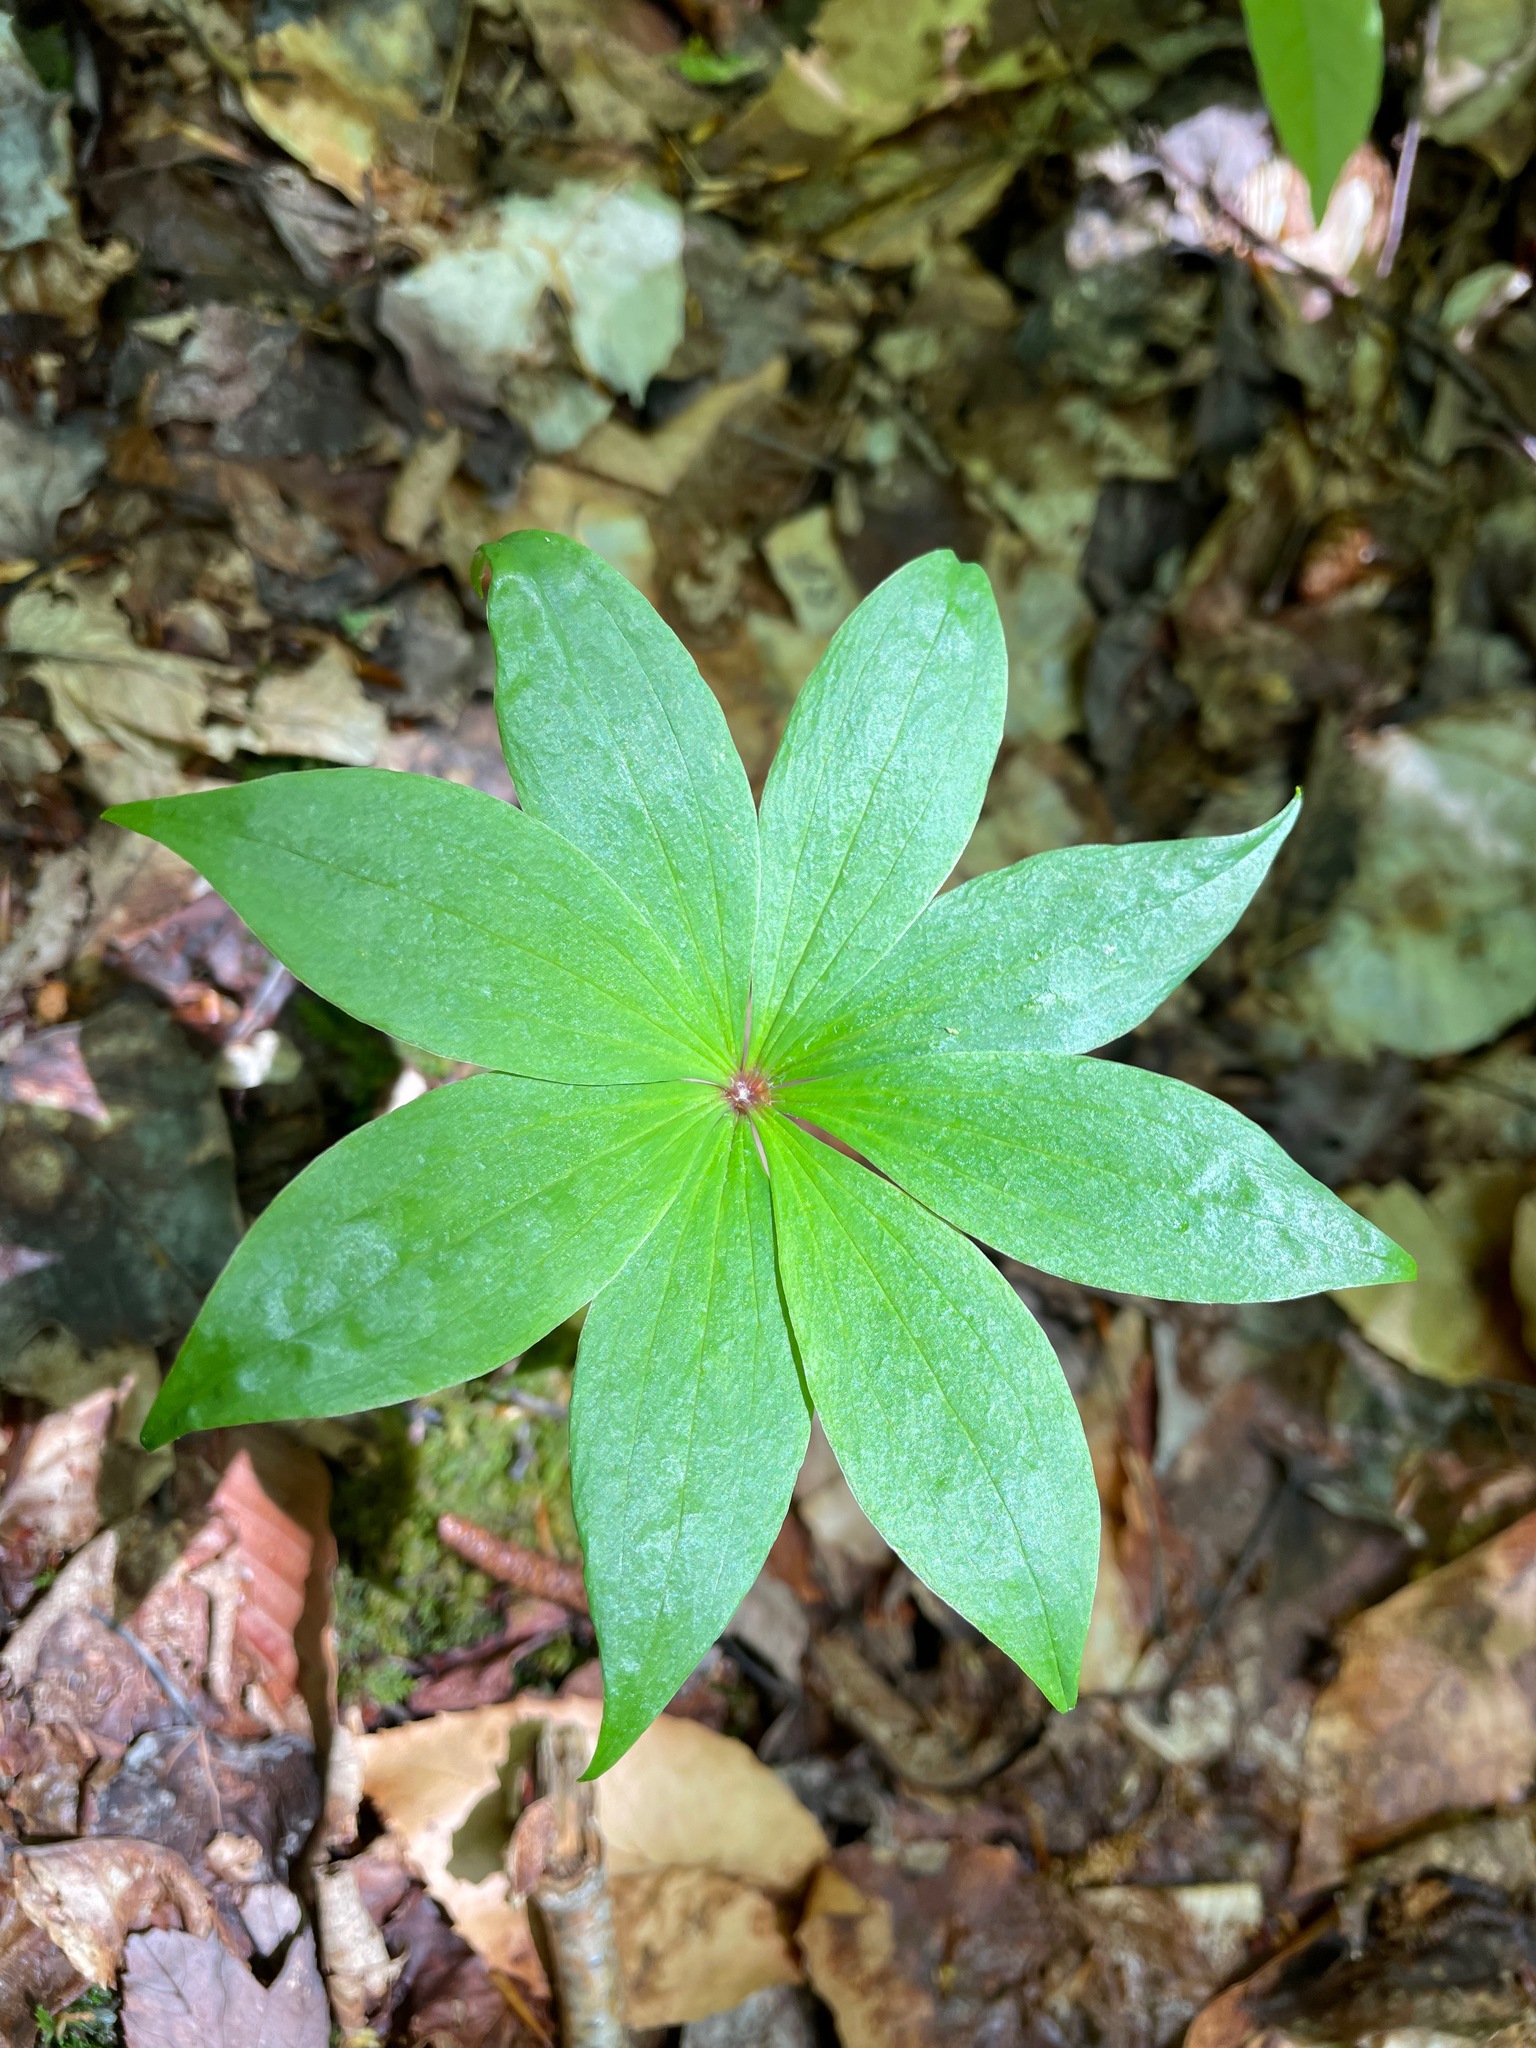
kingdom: Plantae
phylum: Tracheophyta
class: Liliopsida
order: Liliales
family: Liliaceae
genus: Medeola
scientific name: Medeola virginiana
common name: Indian cucumber-root
